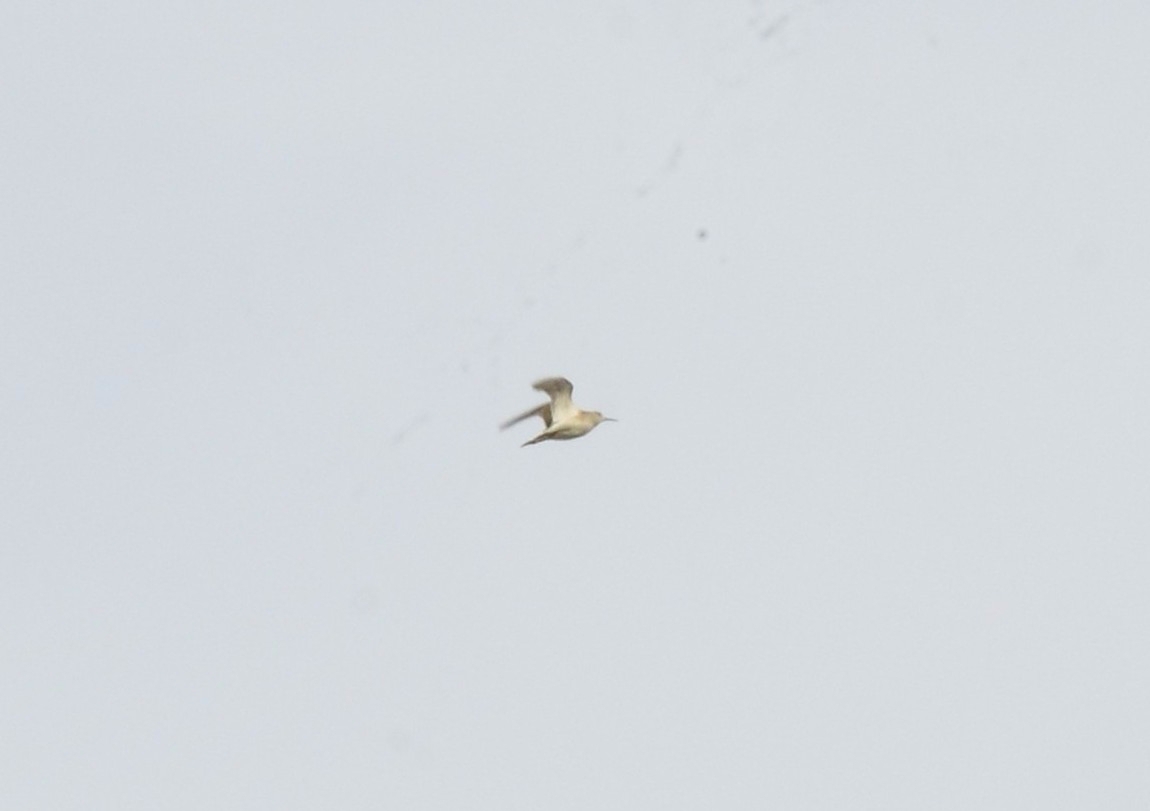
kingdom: Animalia
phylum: Chordata
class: Aves
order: Charadriiformes
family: Scolopacidae
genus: Tringa
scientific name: Tringa glareola
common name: Wood sandpiper
